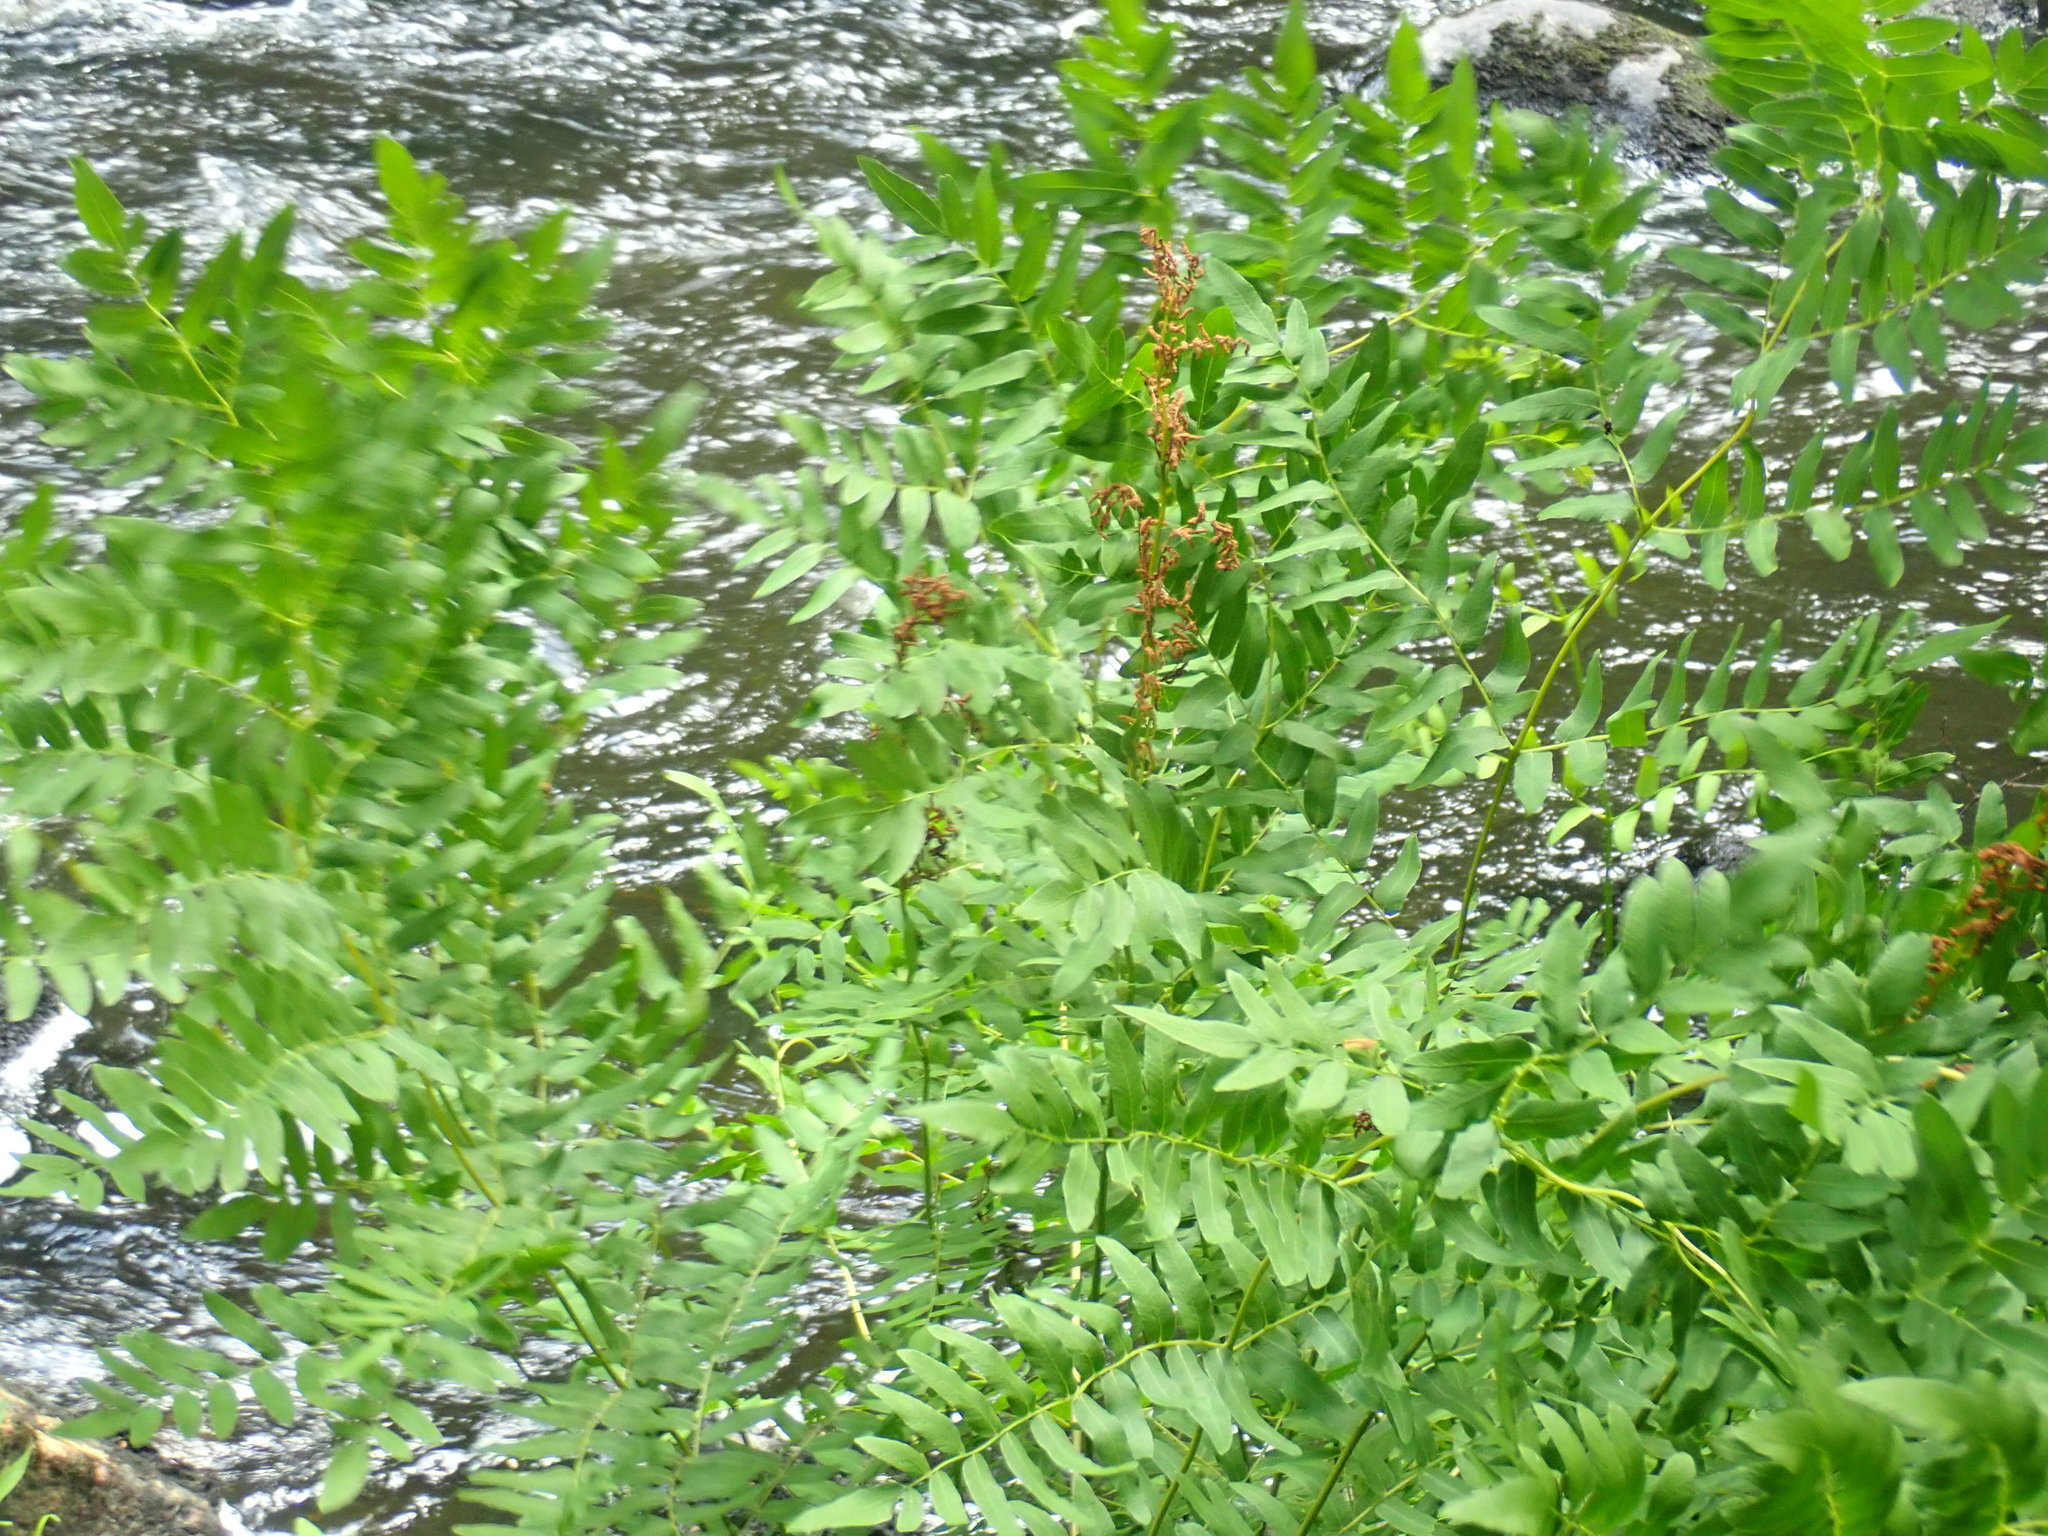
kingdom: Plantae
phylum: Tracheophyta
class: Polypodiopsida
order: Osmundales
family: Osmundaceae
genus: Osmunda
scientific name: Osmunda spectabilis
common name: American royal fern
